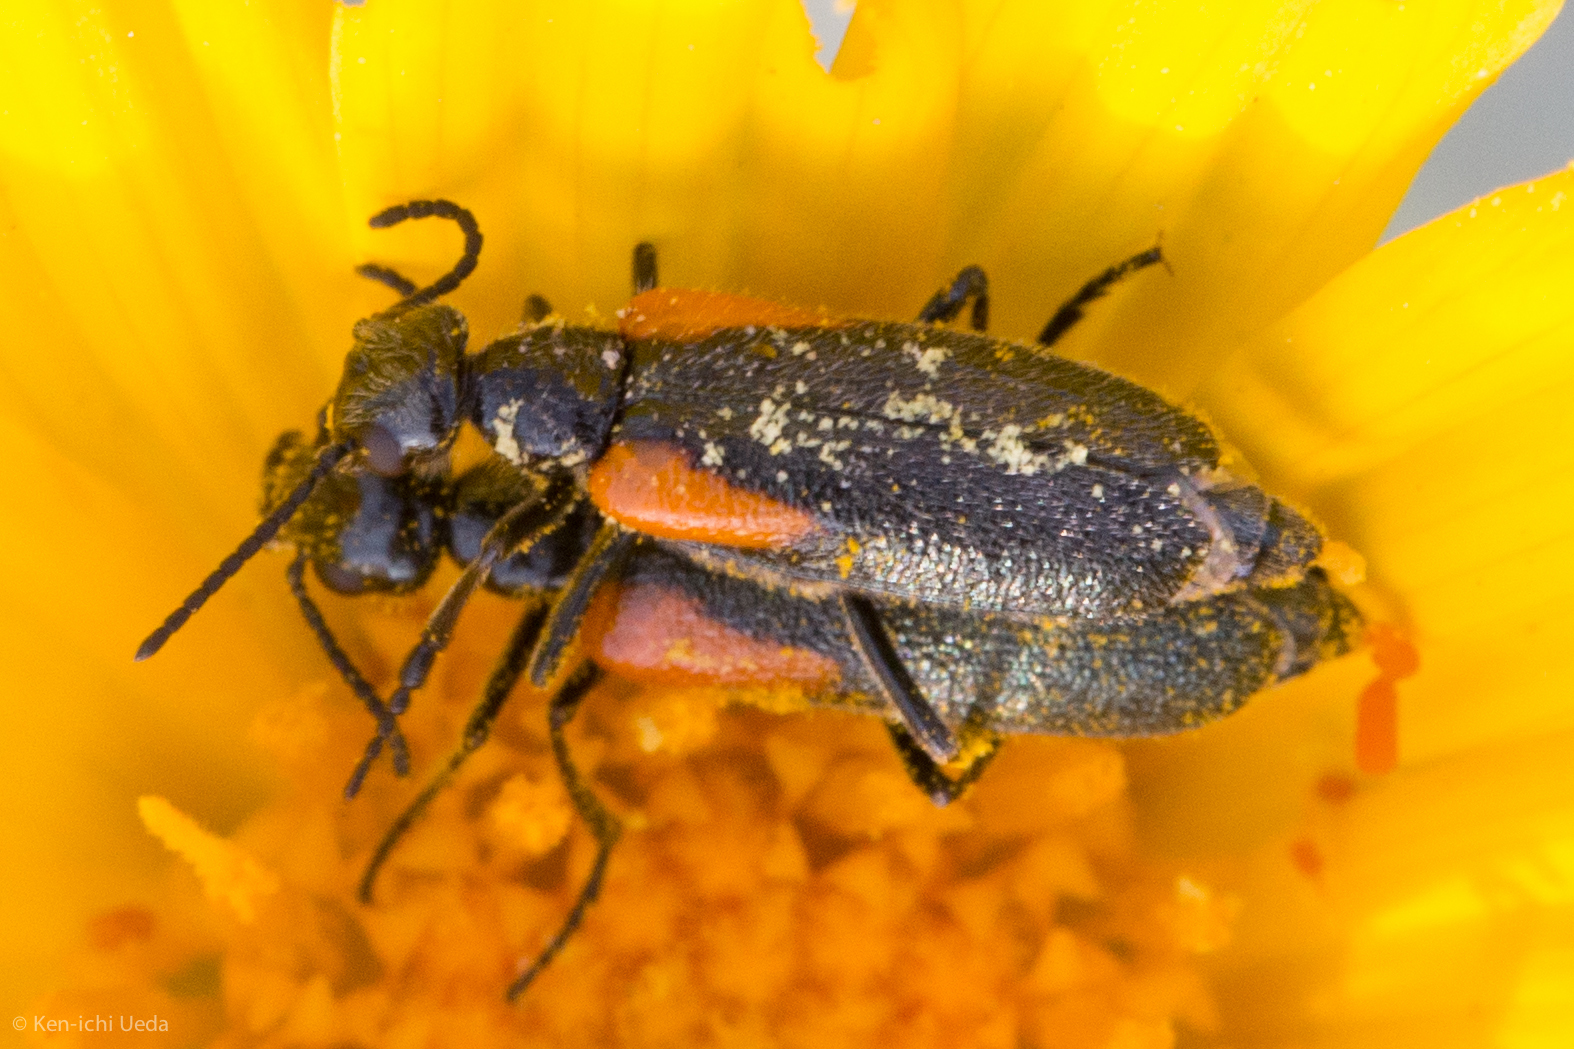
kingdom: Animalia
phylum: Arthropoda
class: Insecta
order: Coleoptera
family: Meloidae
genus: Eupompha
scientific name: Eupompha elegans
